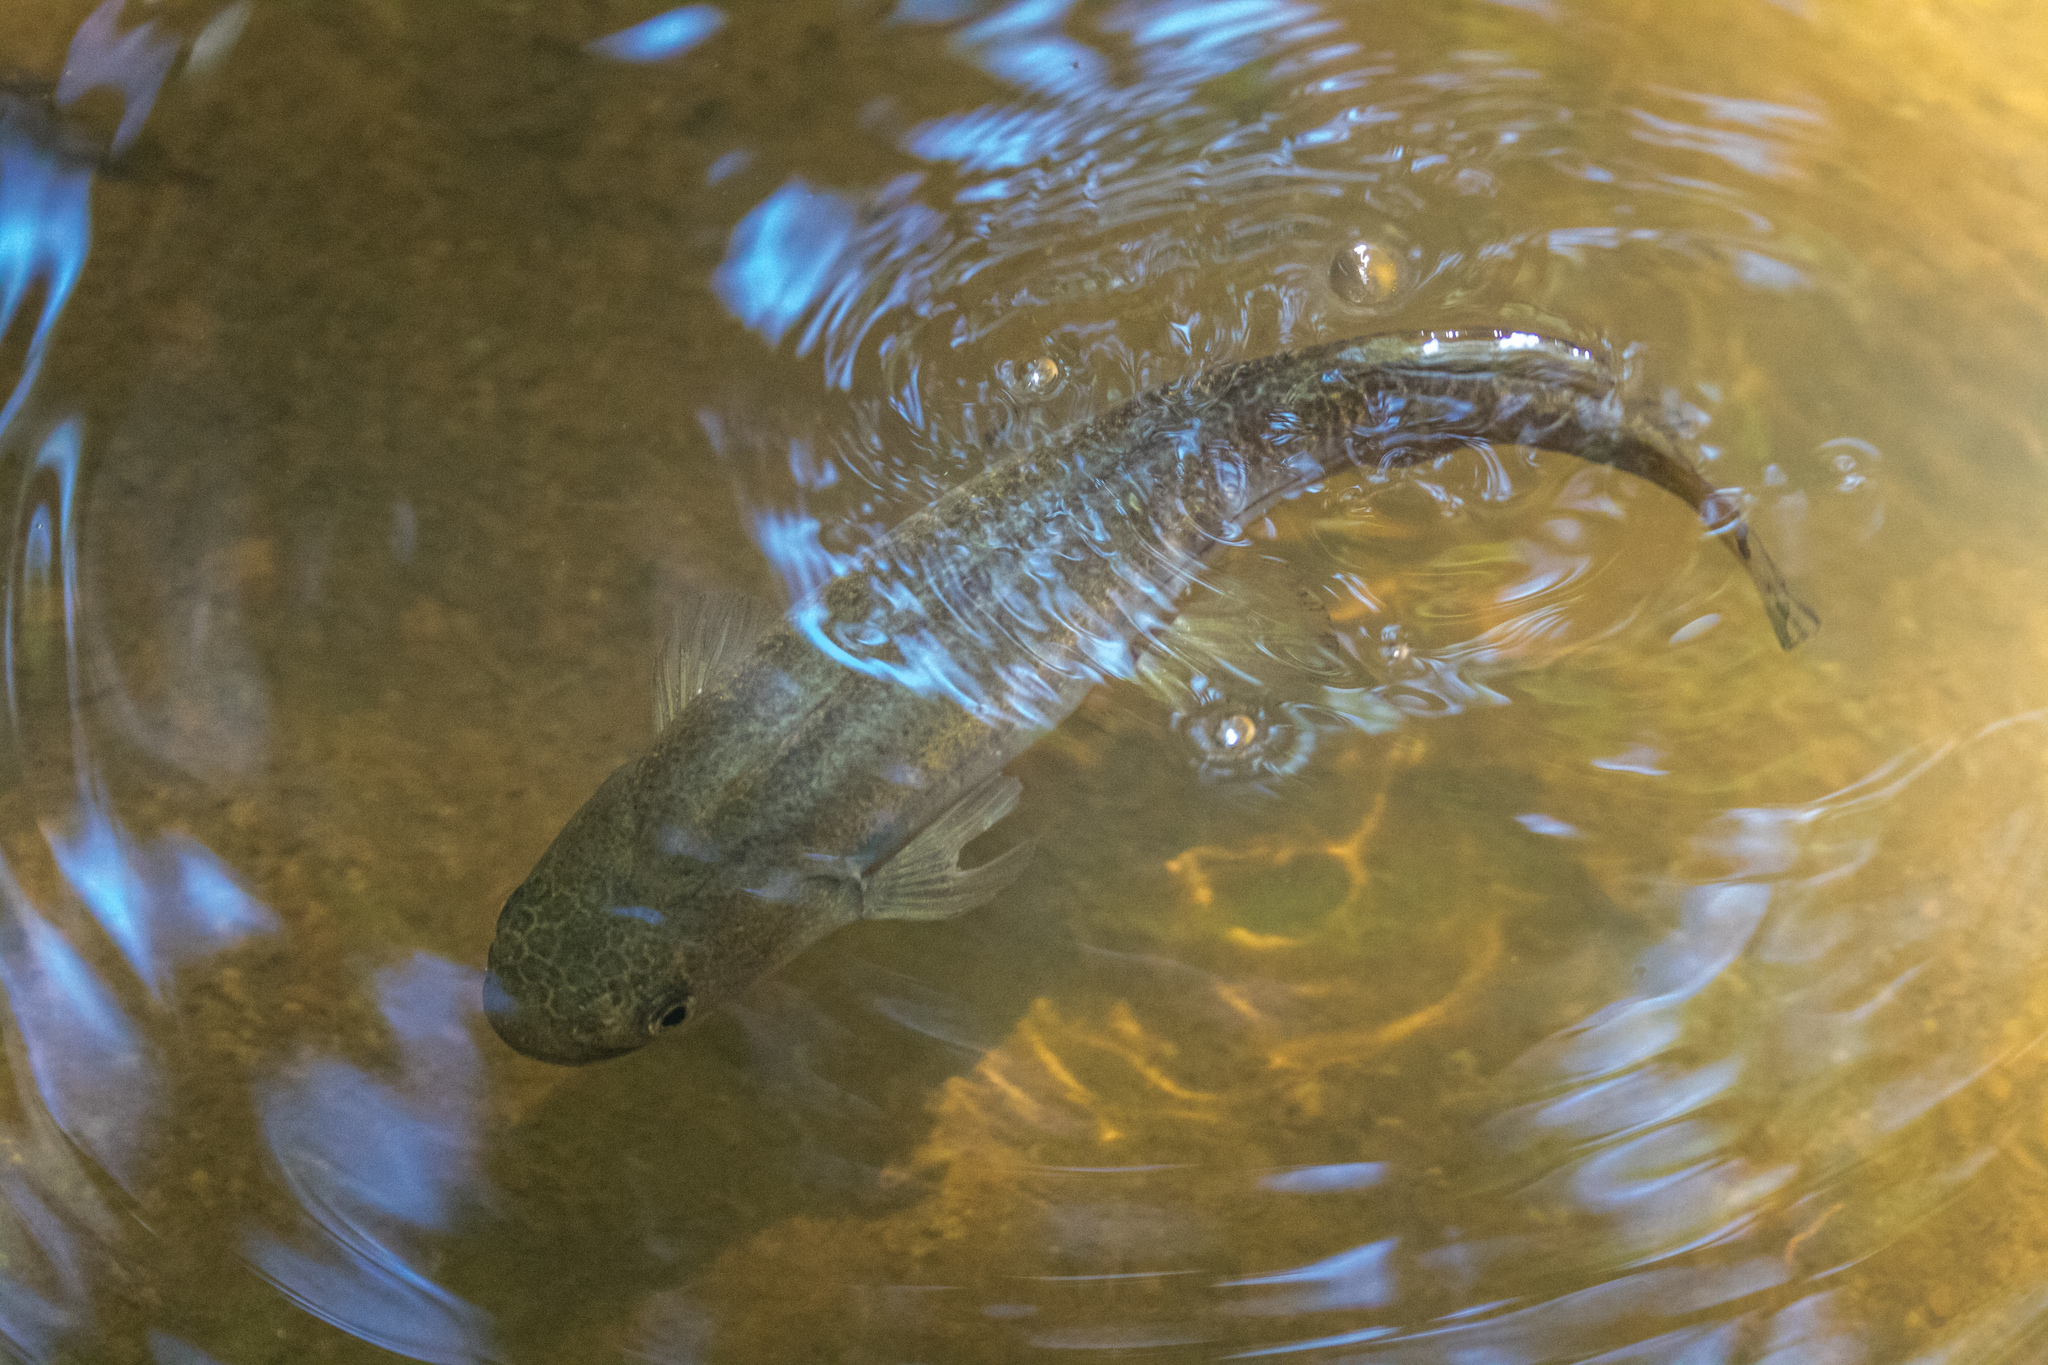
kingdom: Animalia
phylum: Chordata
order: Osmeriformes
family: Galaxiidae
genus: Galaxias
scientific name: Galaxias fasciatus
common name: Banded kokopu
